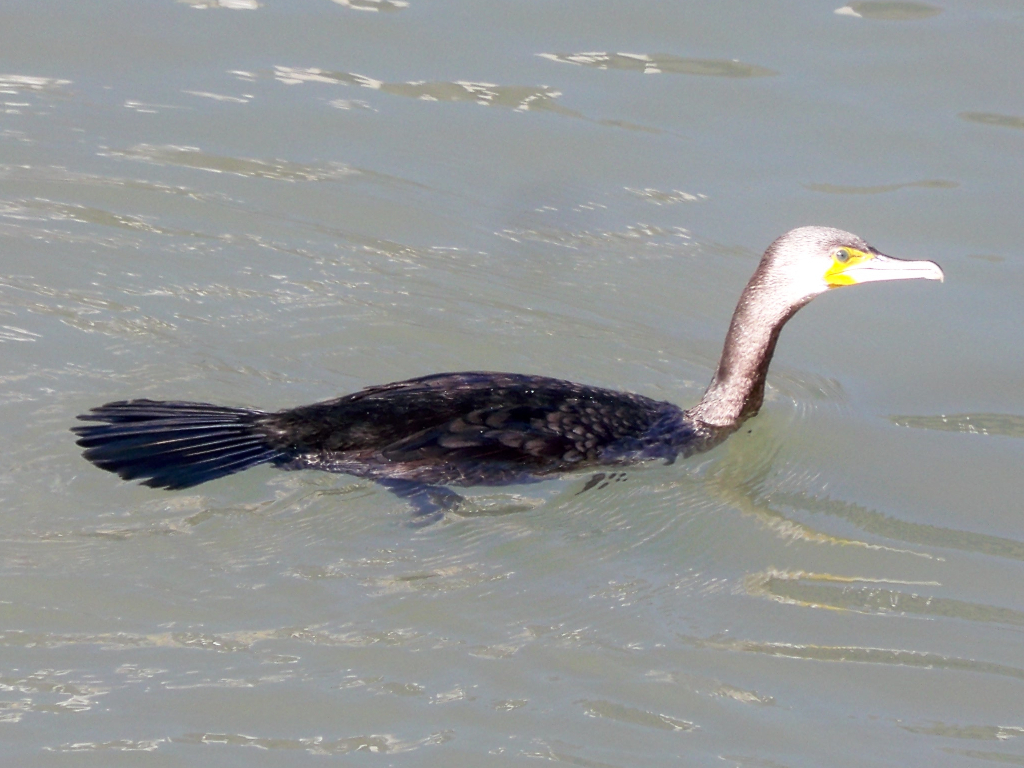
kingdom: Animalia
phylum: Chordata
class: Aves
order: Suliformes
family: Phalacrocoracidae
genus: Phalacrocorax
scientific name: Phalacrocorax carbo
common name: Great cormorant
